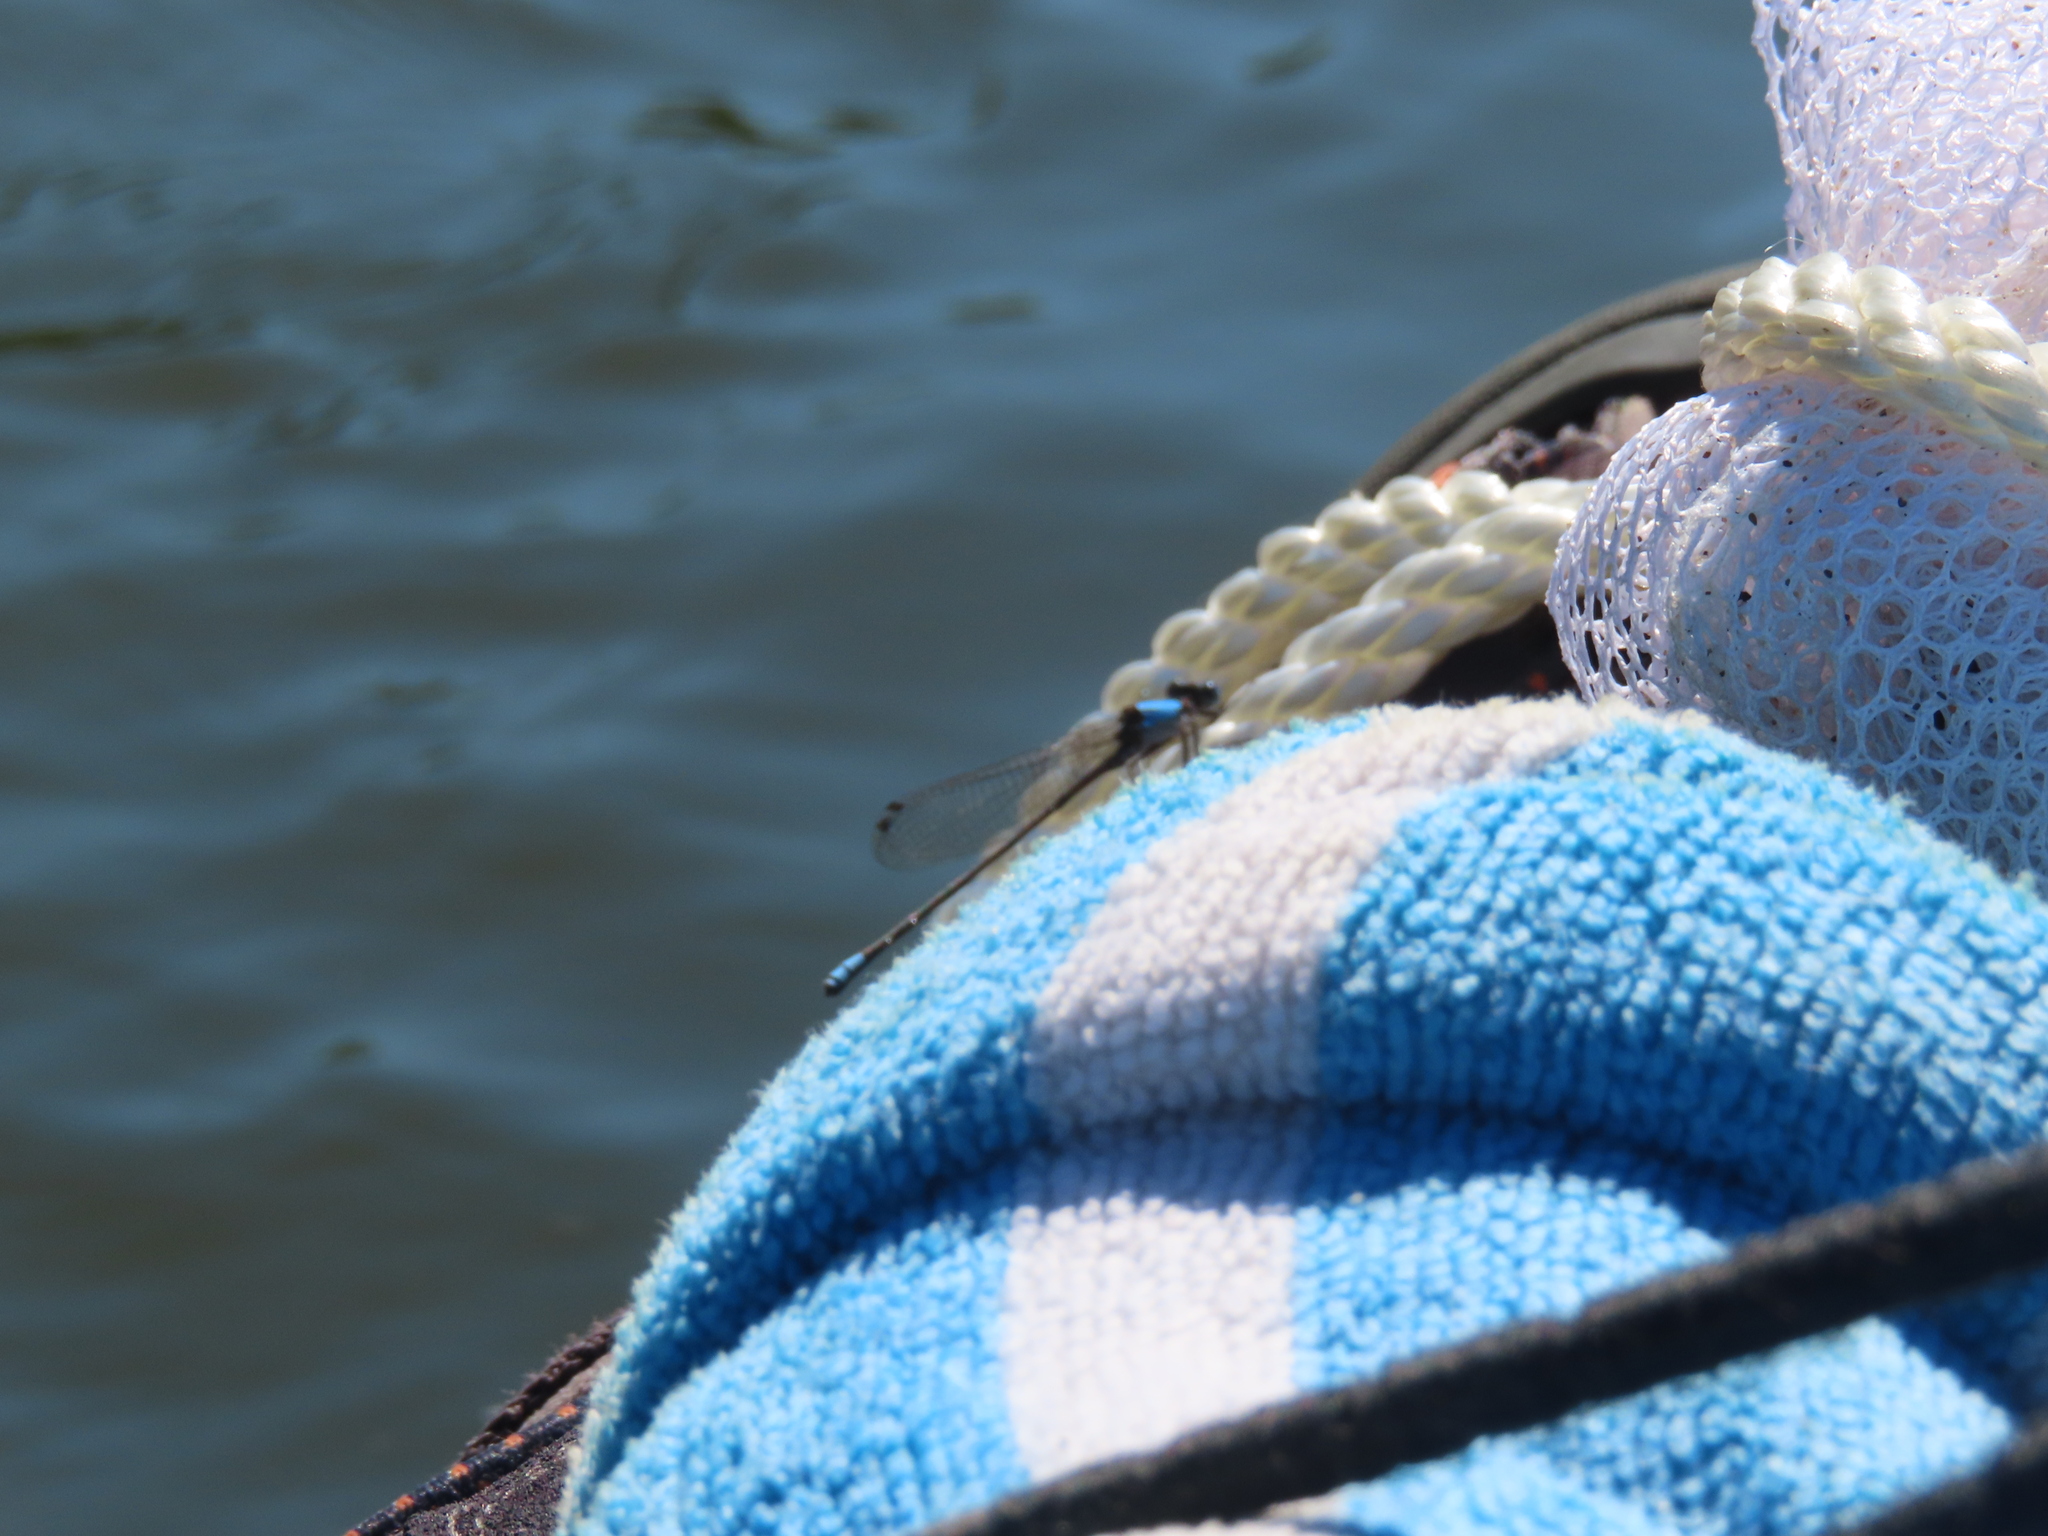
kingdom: Animalia
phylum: Arthropoda
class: Insecta
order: Odonata
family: Coenagrionidae
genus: Argia
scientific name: Argia apicalis
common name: Blue-fronted dancer
